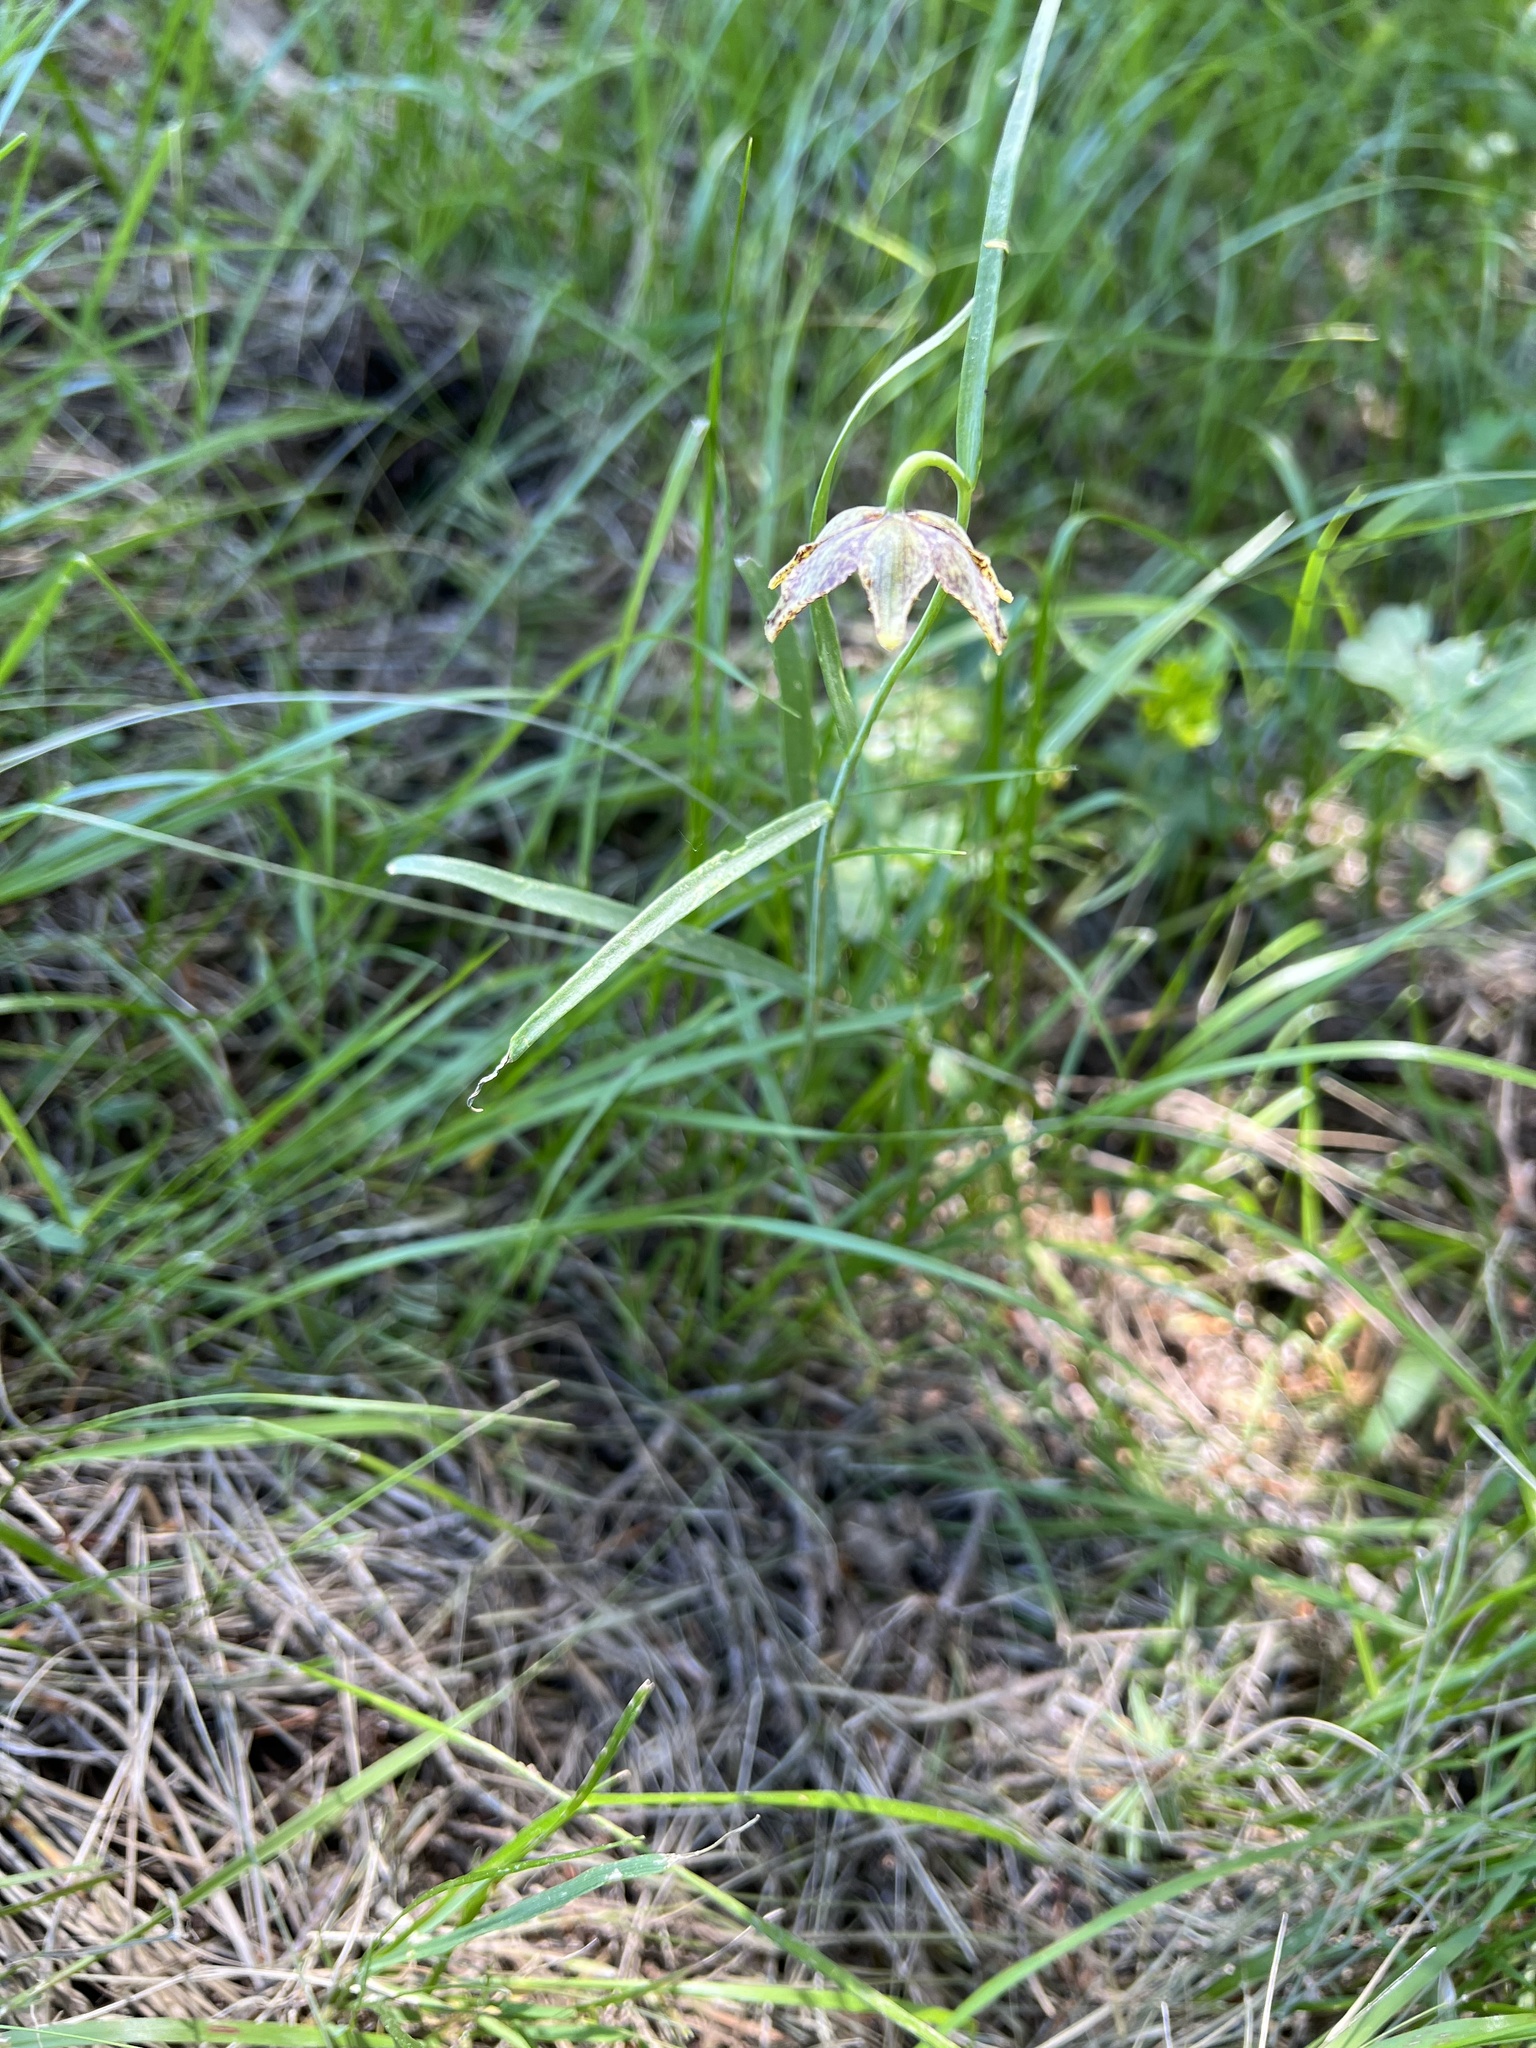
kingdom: Plantae
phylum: Tracheophyta
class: Liliopsida
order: Liliales
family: Liliaceae
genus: Fritillaria
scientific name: Fritillaria atropurpurea
